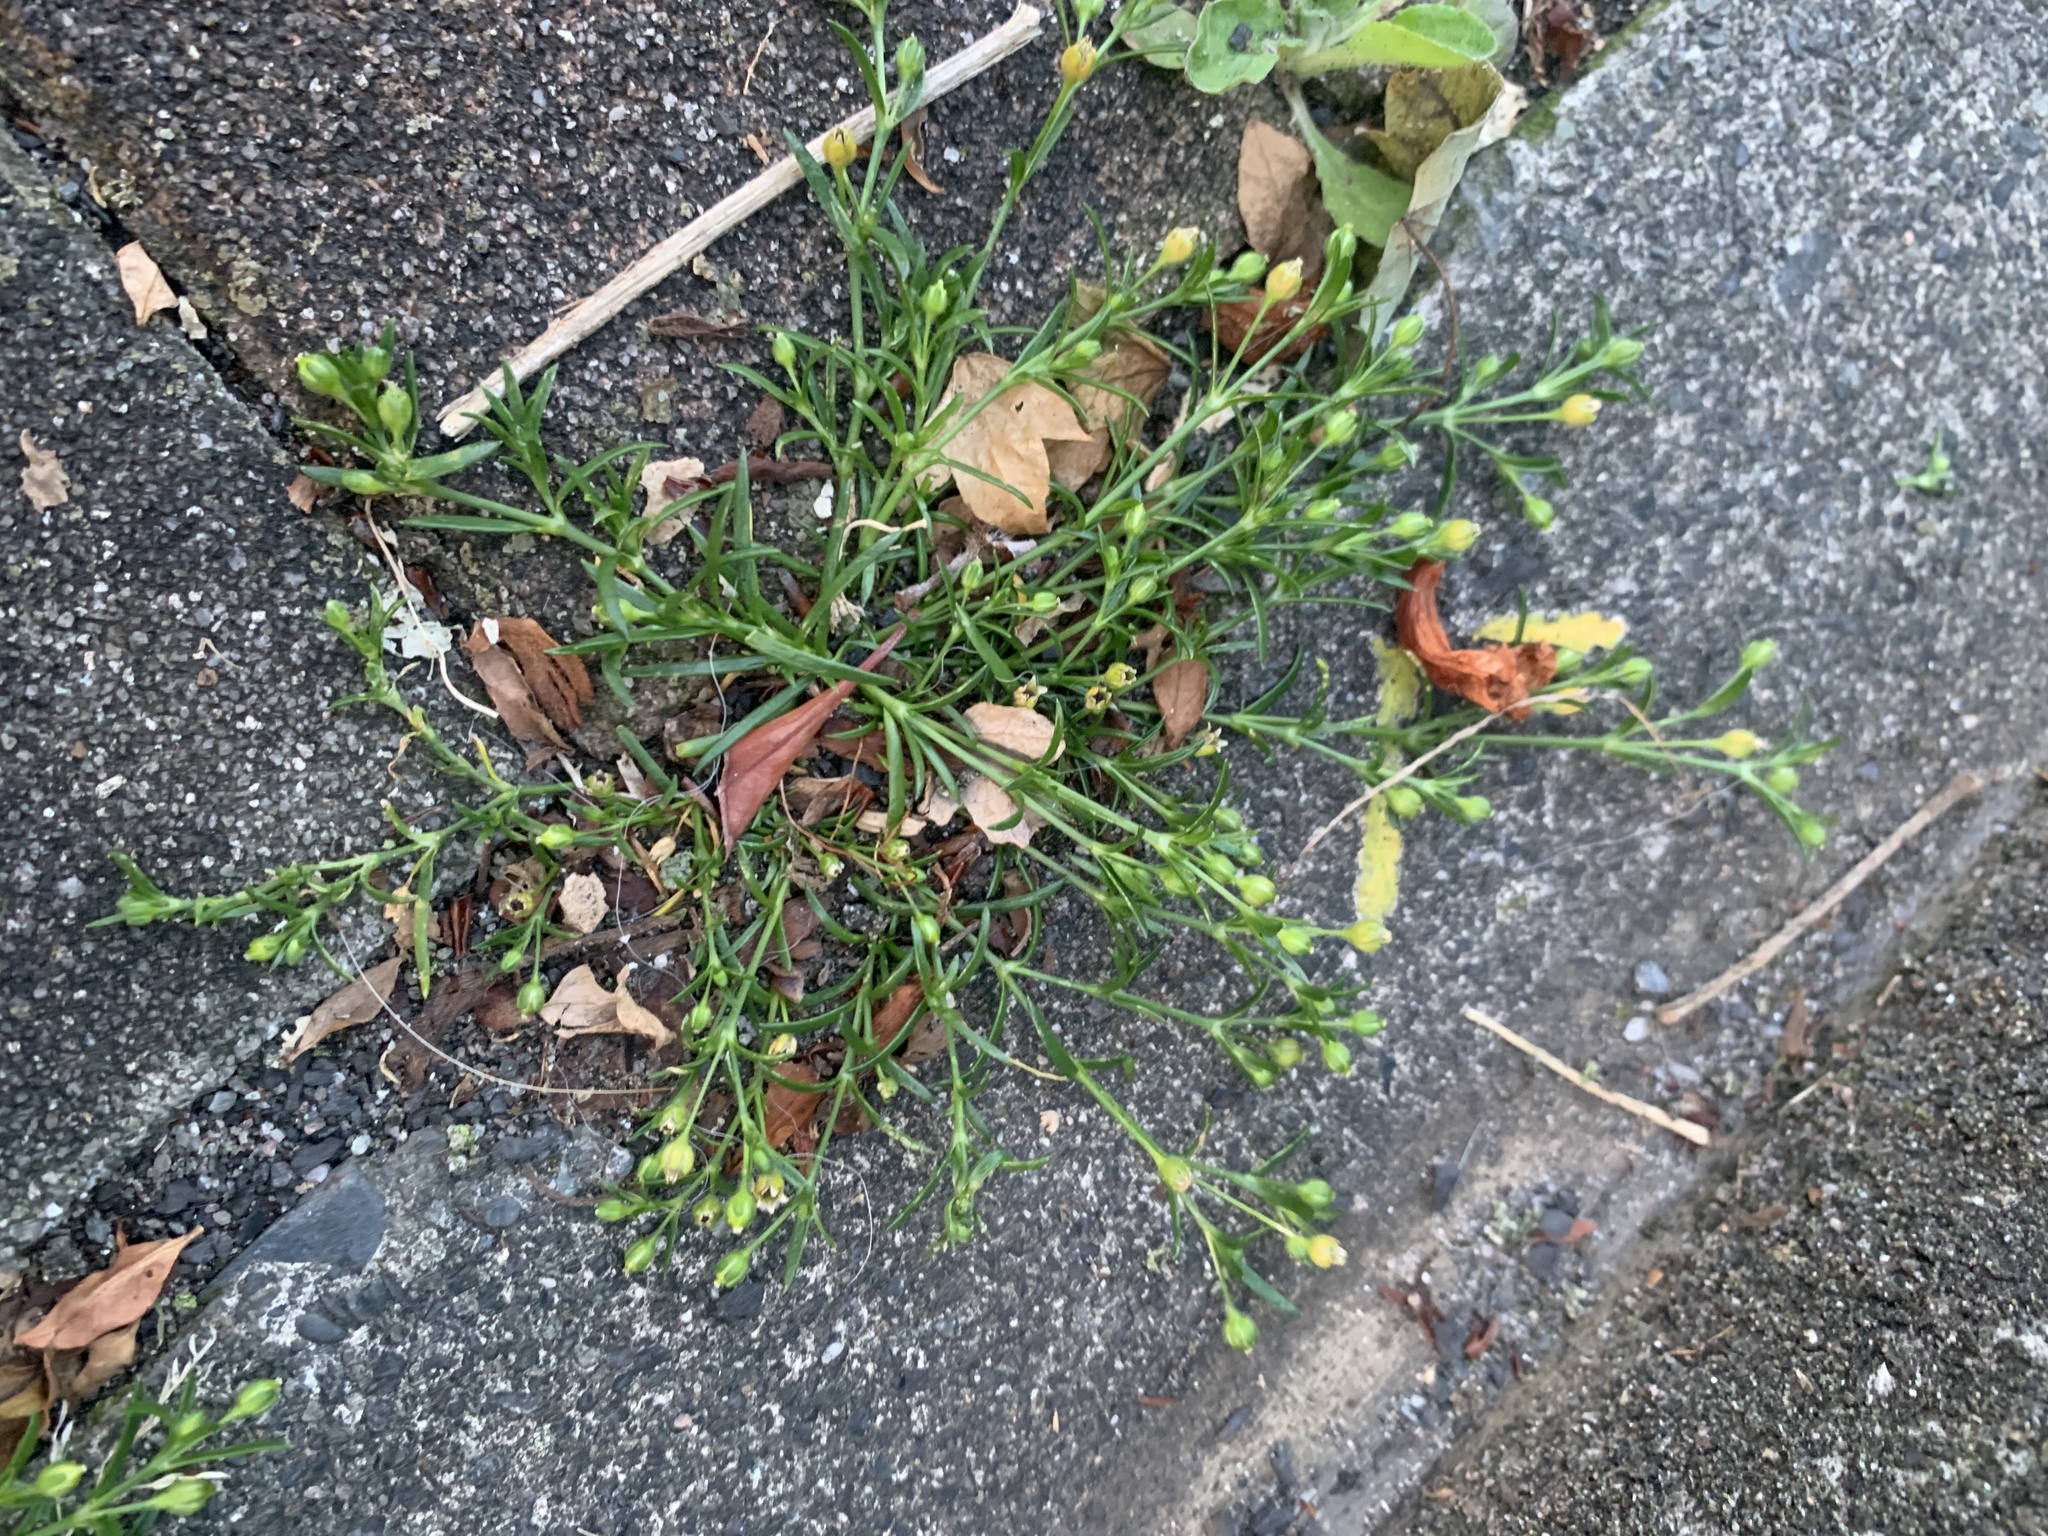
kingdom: Plantae
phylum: Tracheophyta
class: Magnoliopsida
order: Caryophyllales
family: Caryophyllaceae
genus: Sagina
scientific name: Sagina japonica
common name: Japanese pearlwort
